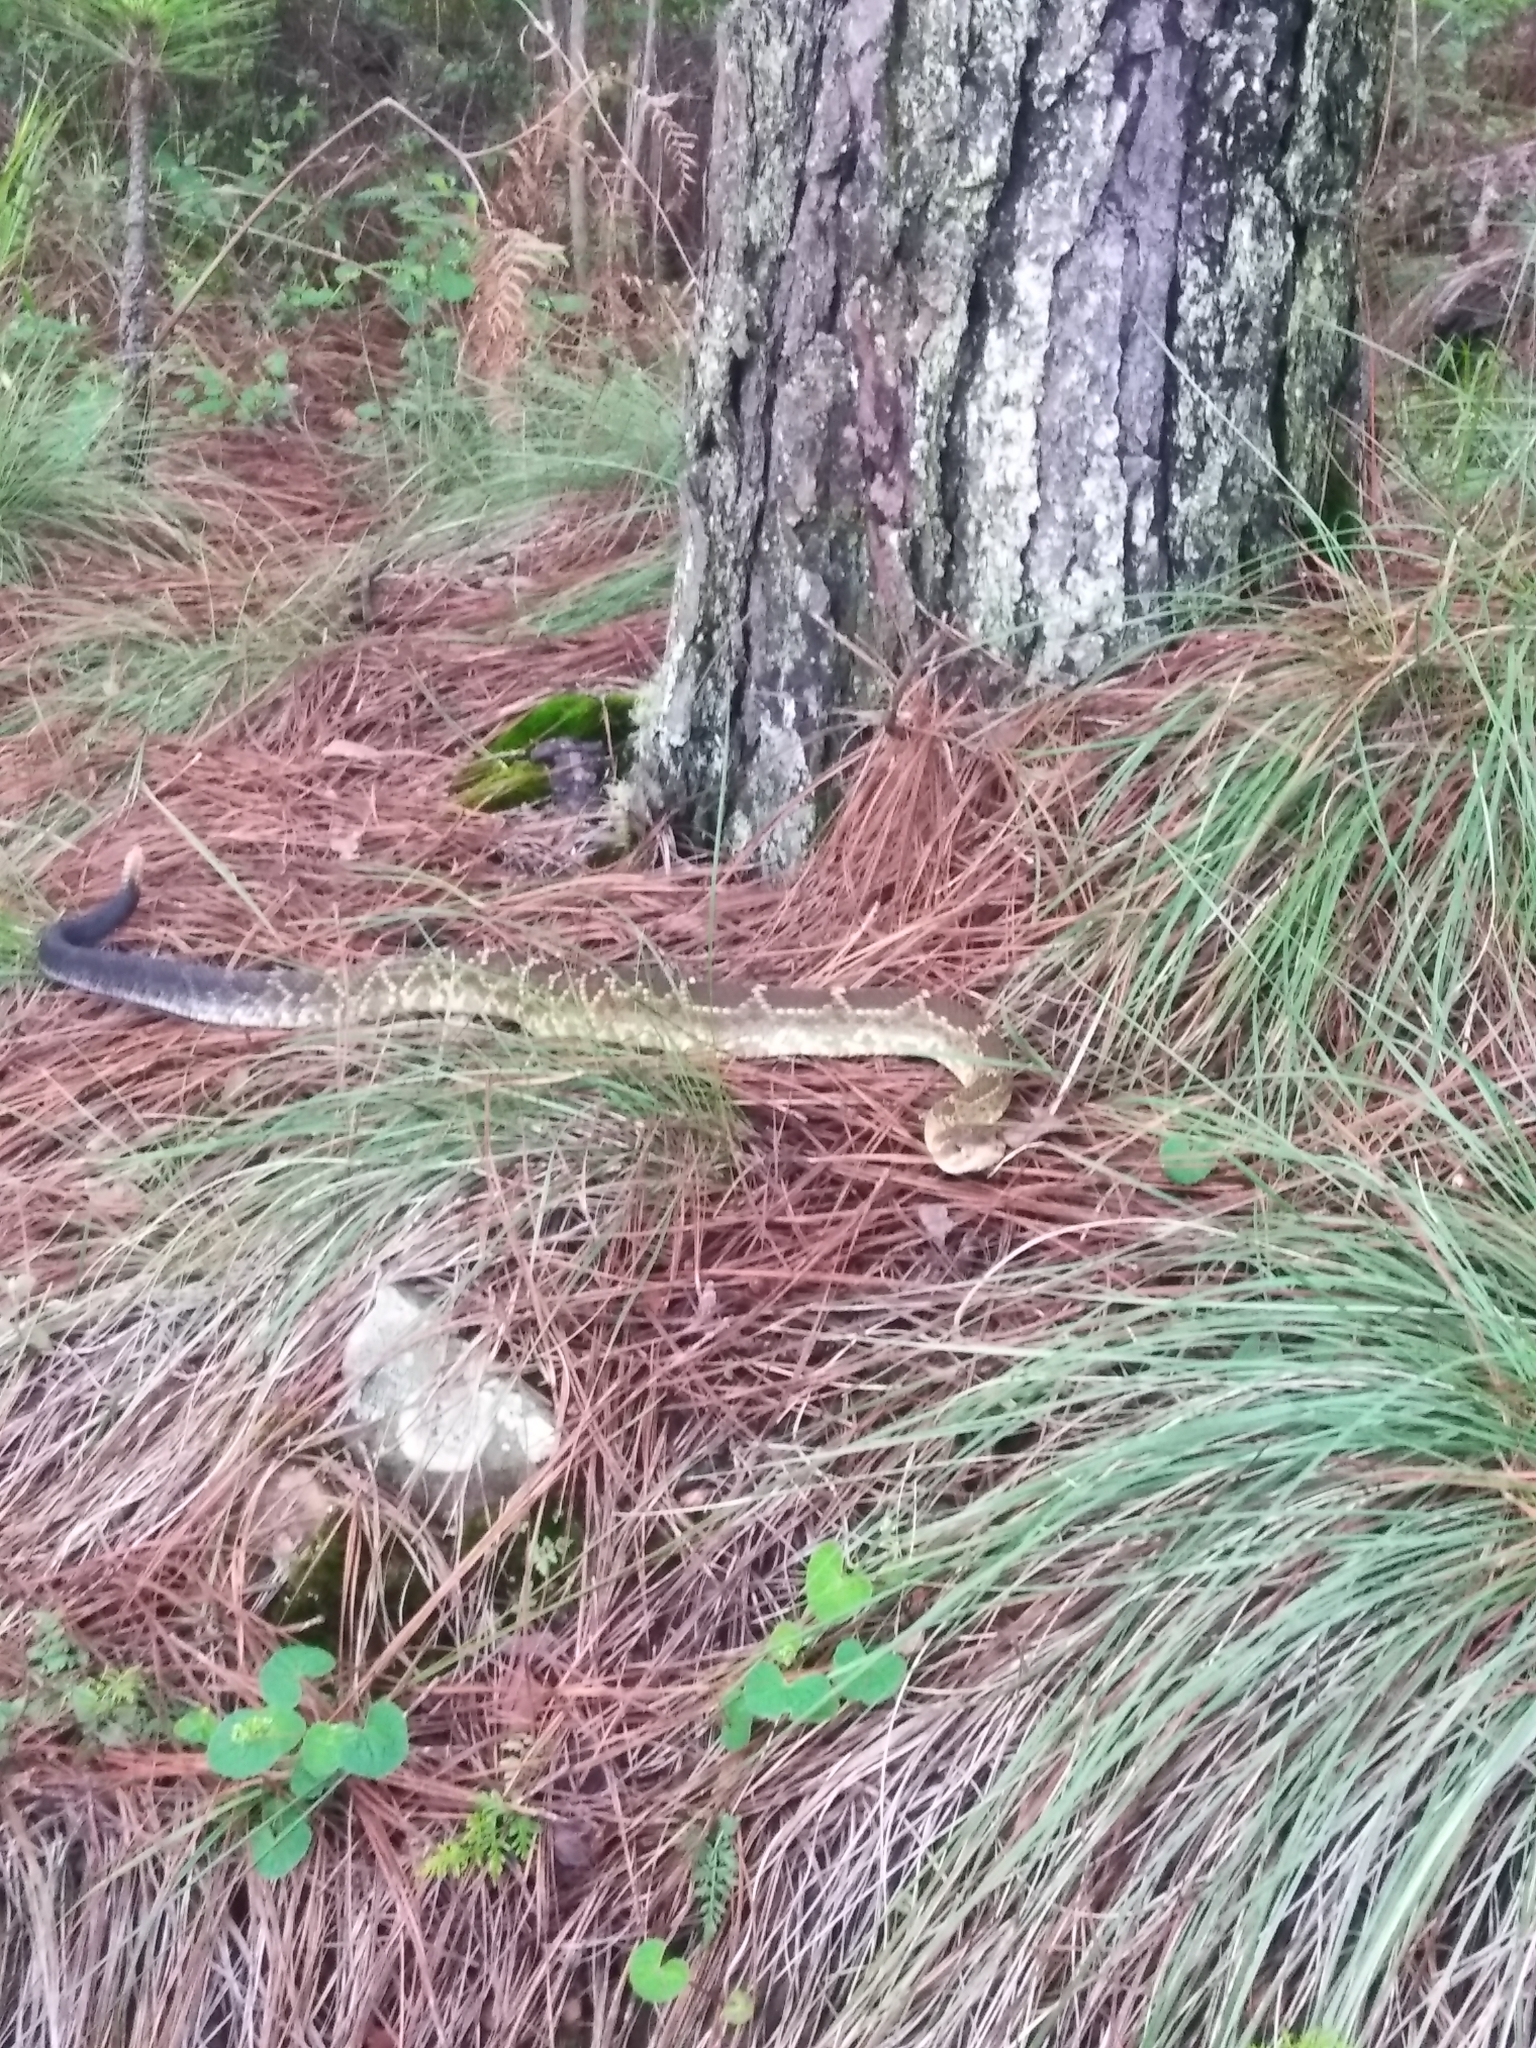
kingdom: Animalia
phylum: Chordata
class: Squamata
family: Viperidae
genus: Crotalus
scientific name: Crotalus molossus
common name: Black tailed rattlesnake
